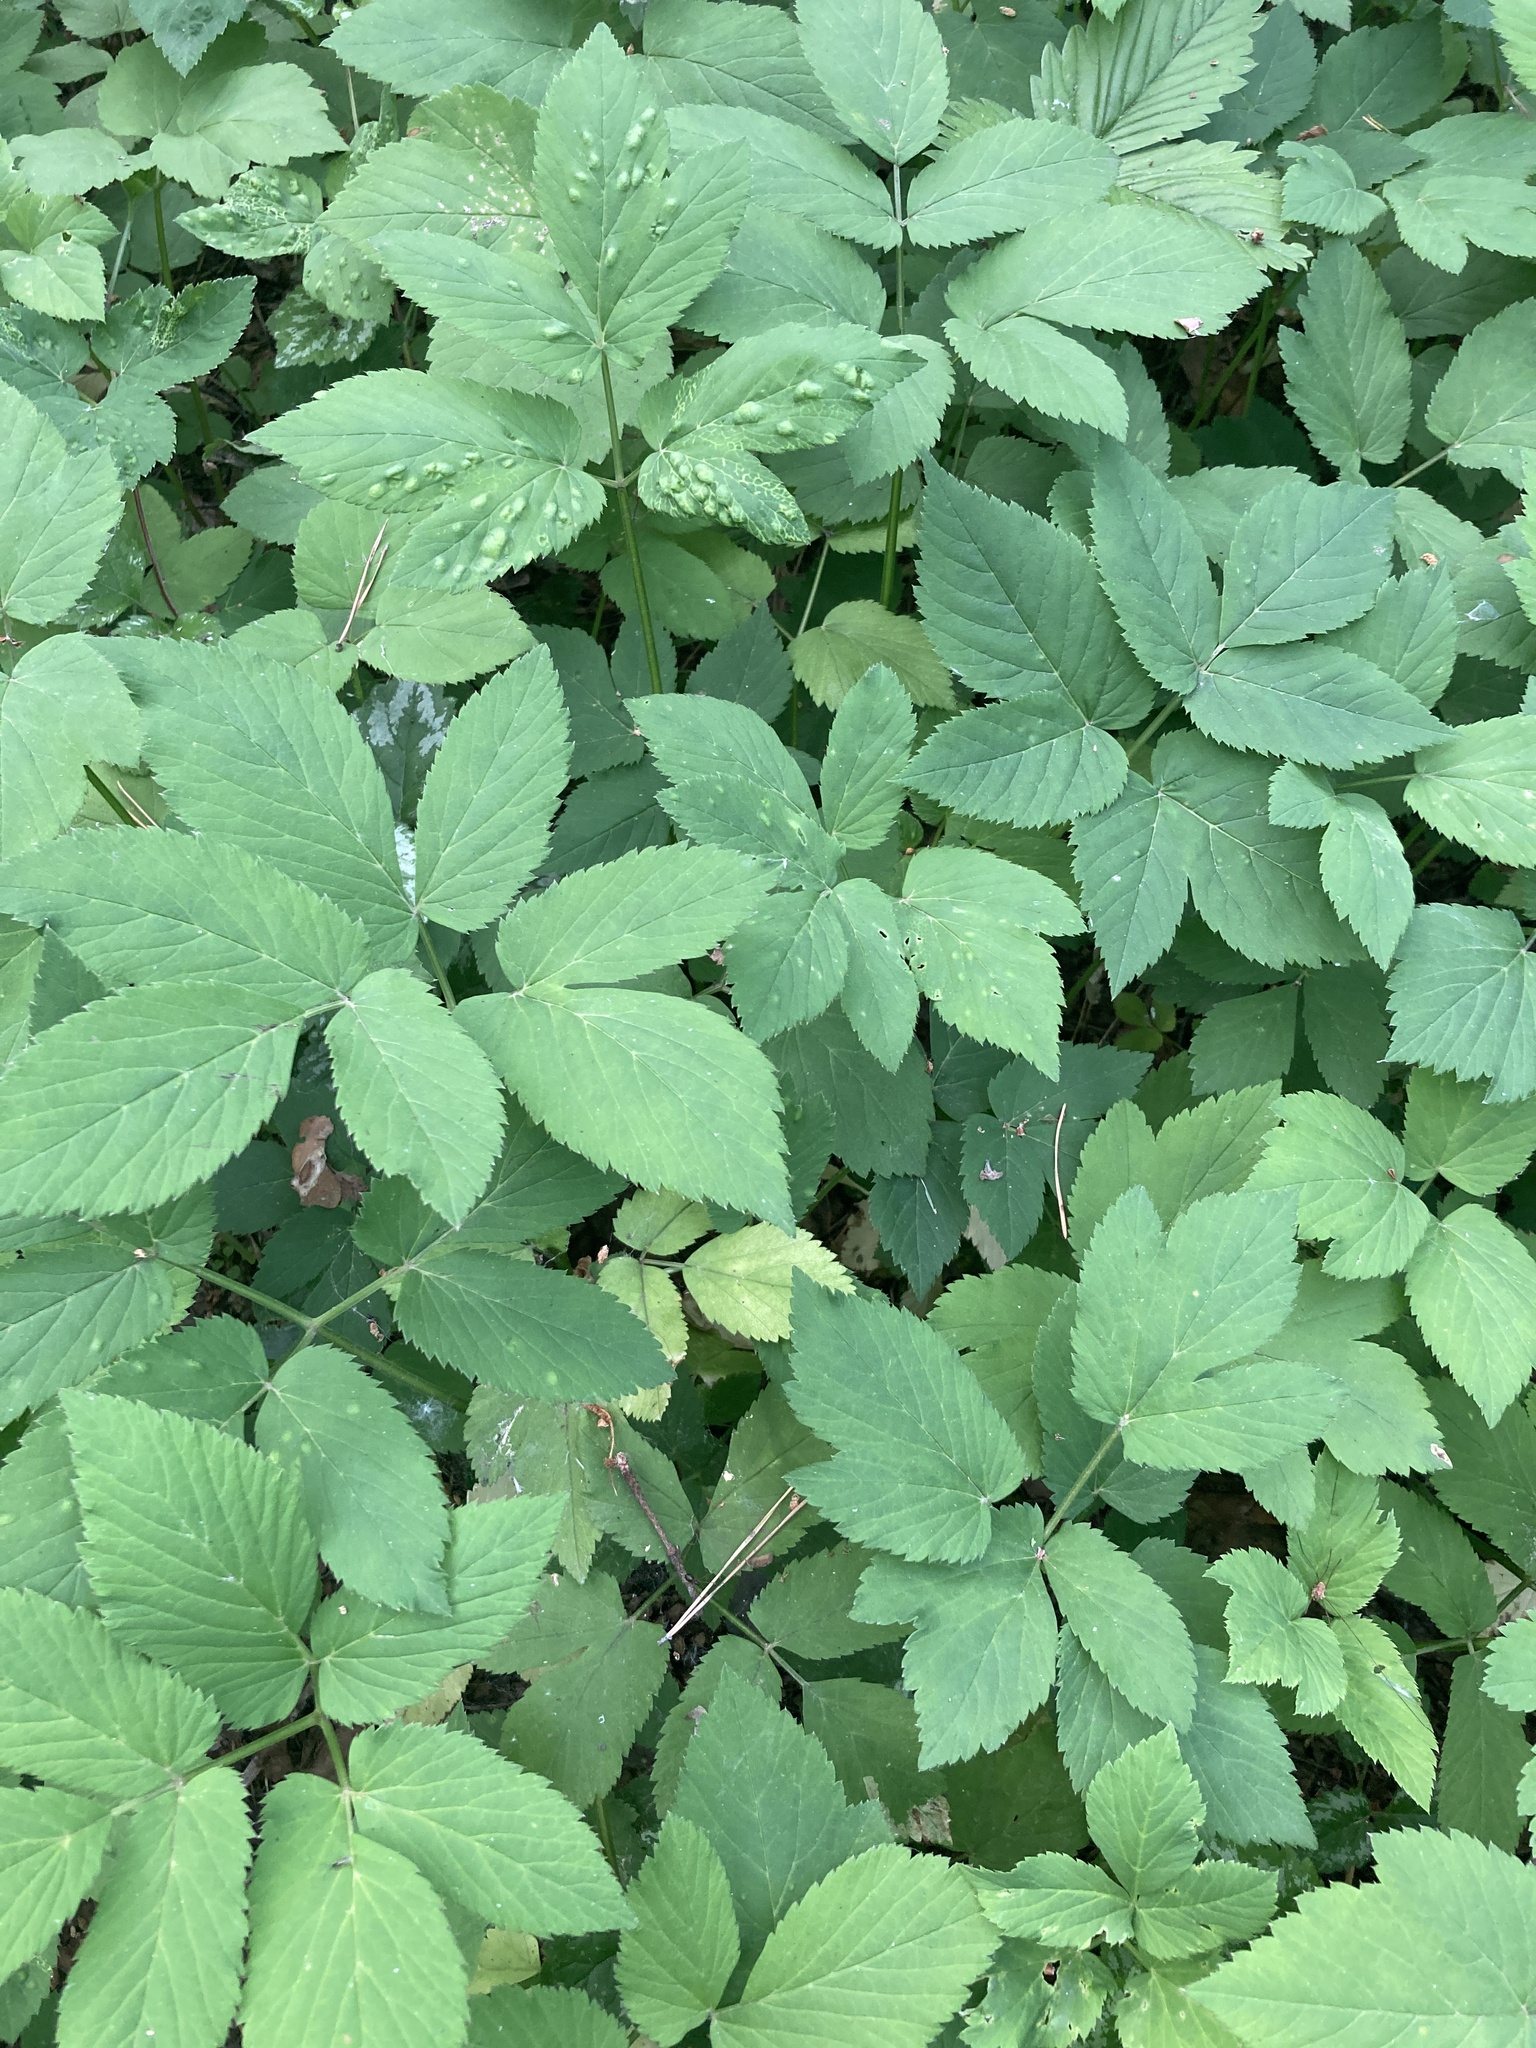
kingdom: Plantae
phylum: Tracheophyta
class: Magnoliopsida
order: Apiales
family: Apiaceae
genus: Aegopodium
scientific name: Aegopodium podagraria
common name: Ground-elder
